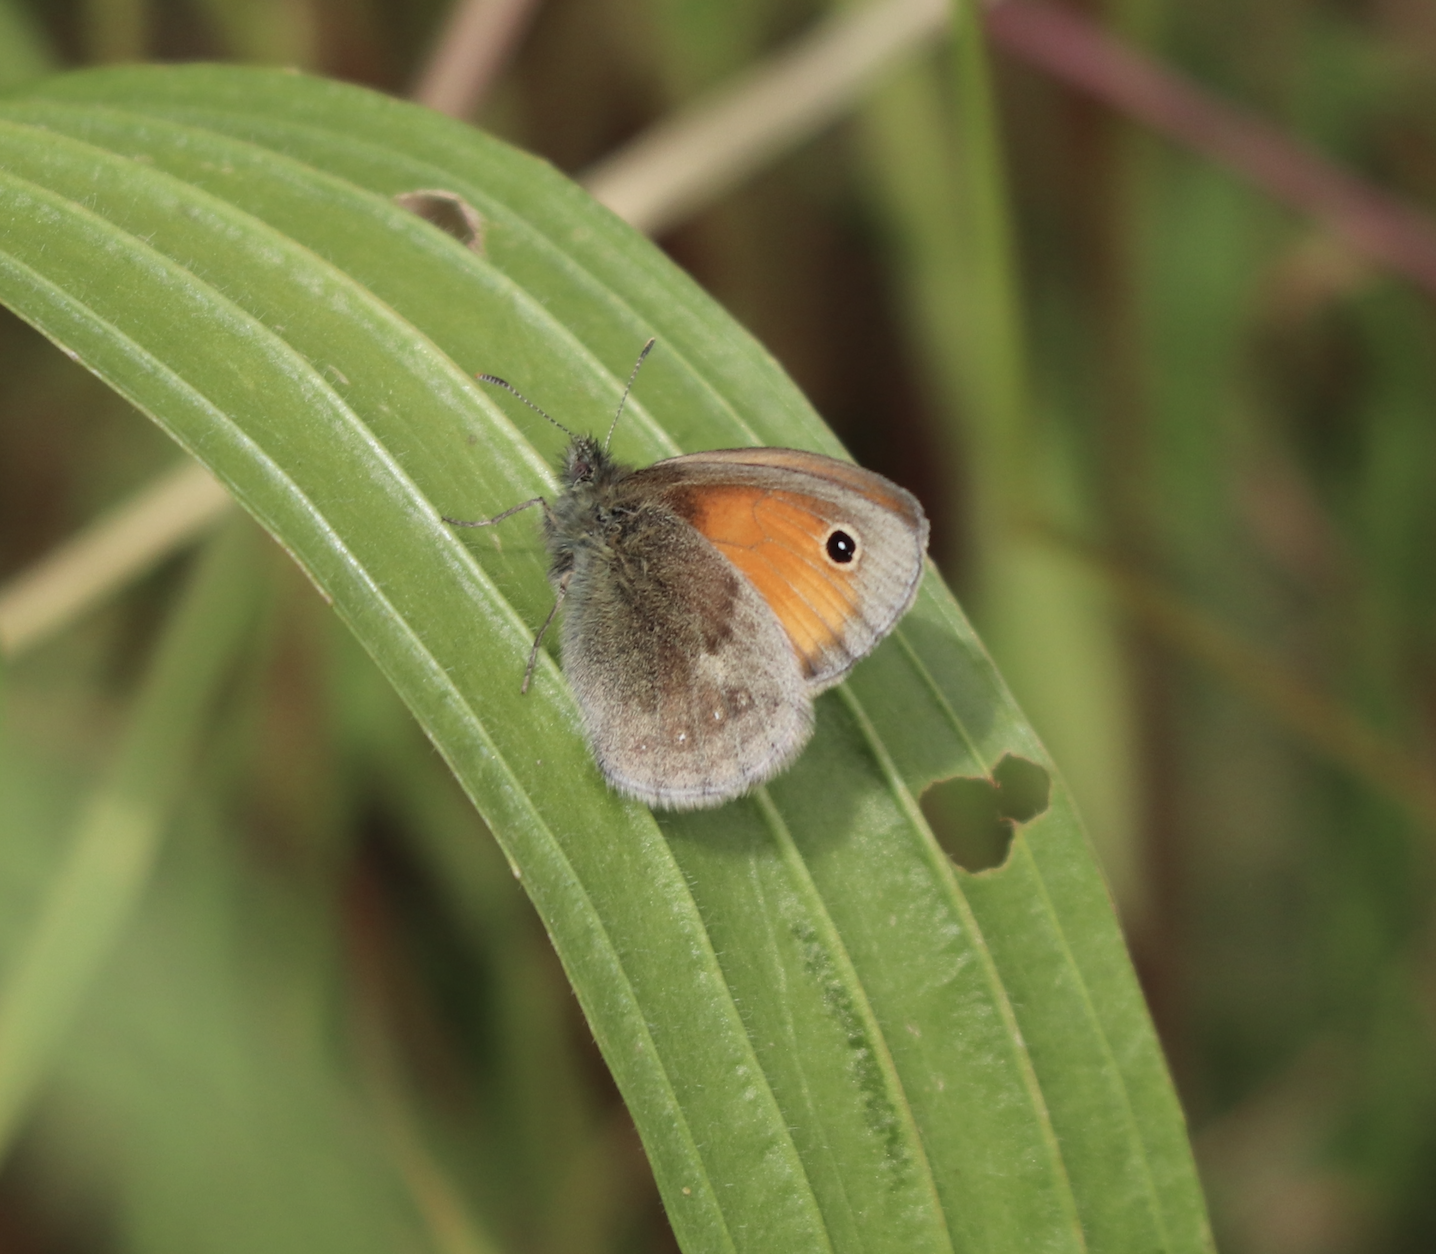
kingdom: Animalia
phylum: Arthropoda
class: Insecta
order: Lepidoptera
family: Nymphalidae
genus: Coenonympha
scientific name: Coenonympha pamphilus
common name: Small heath
